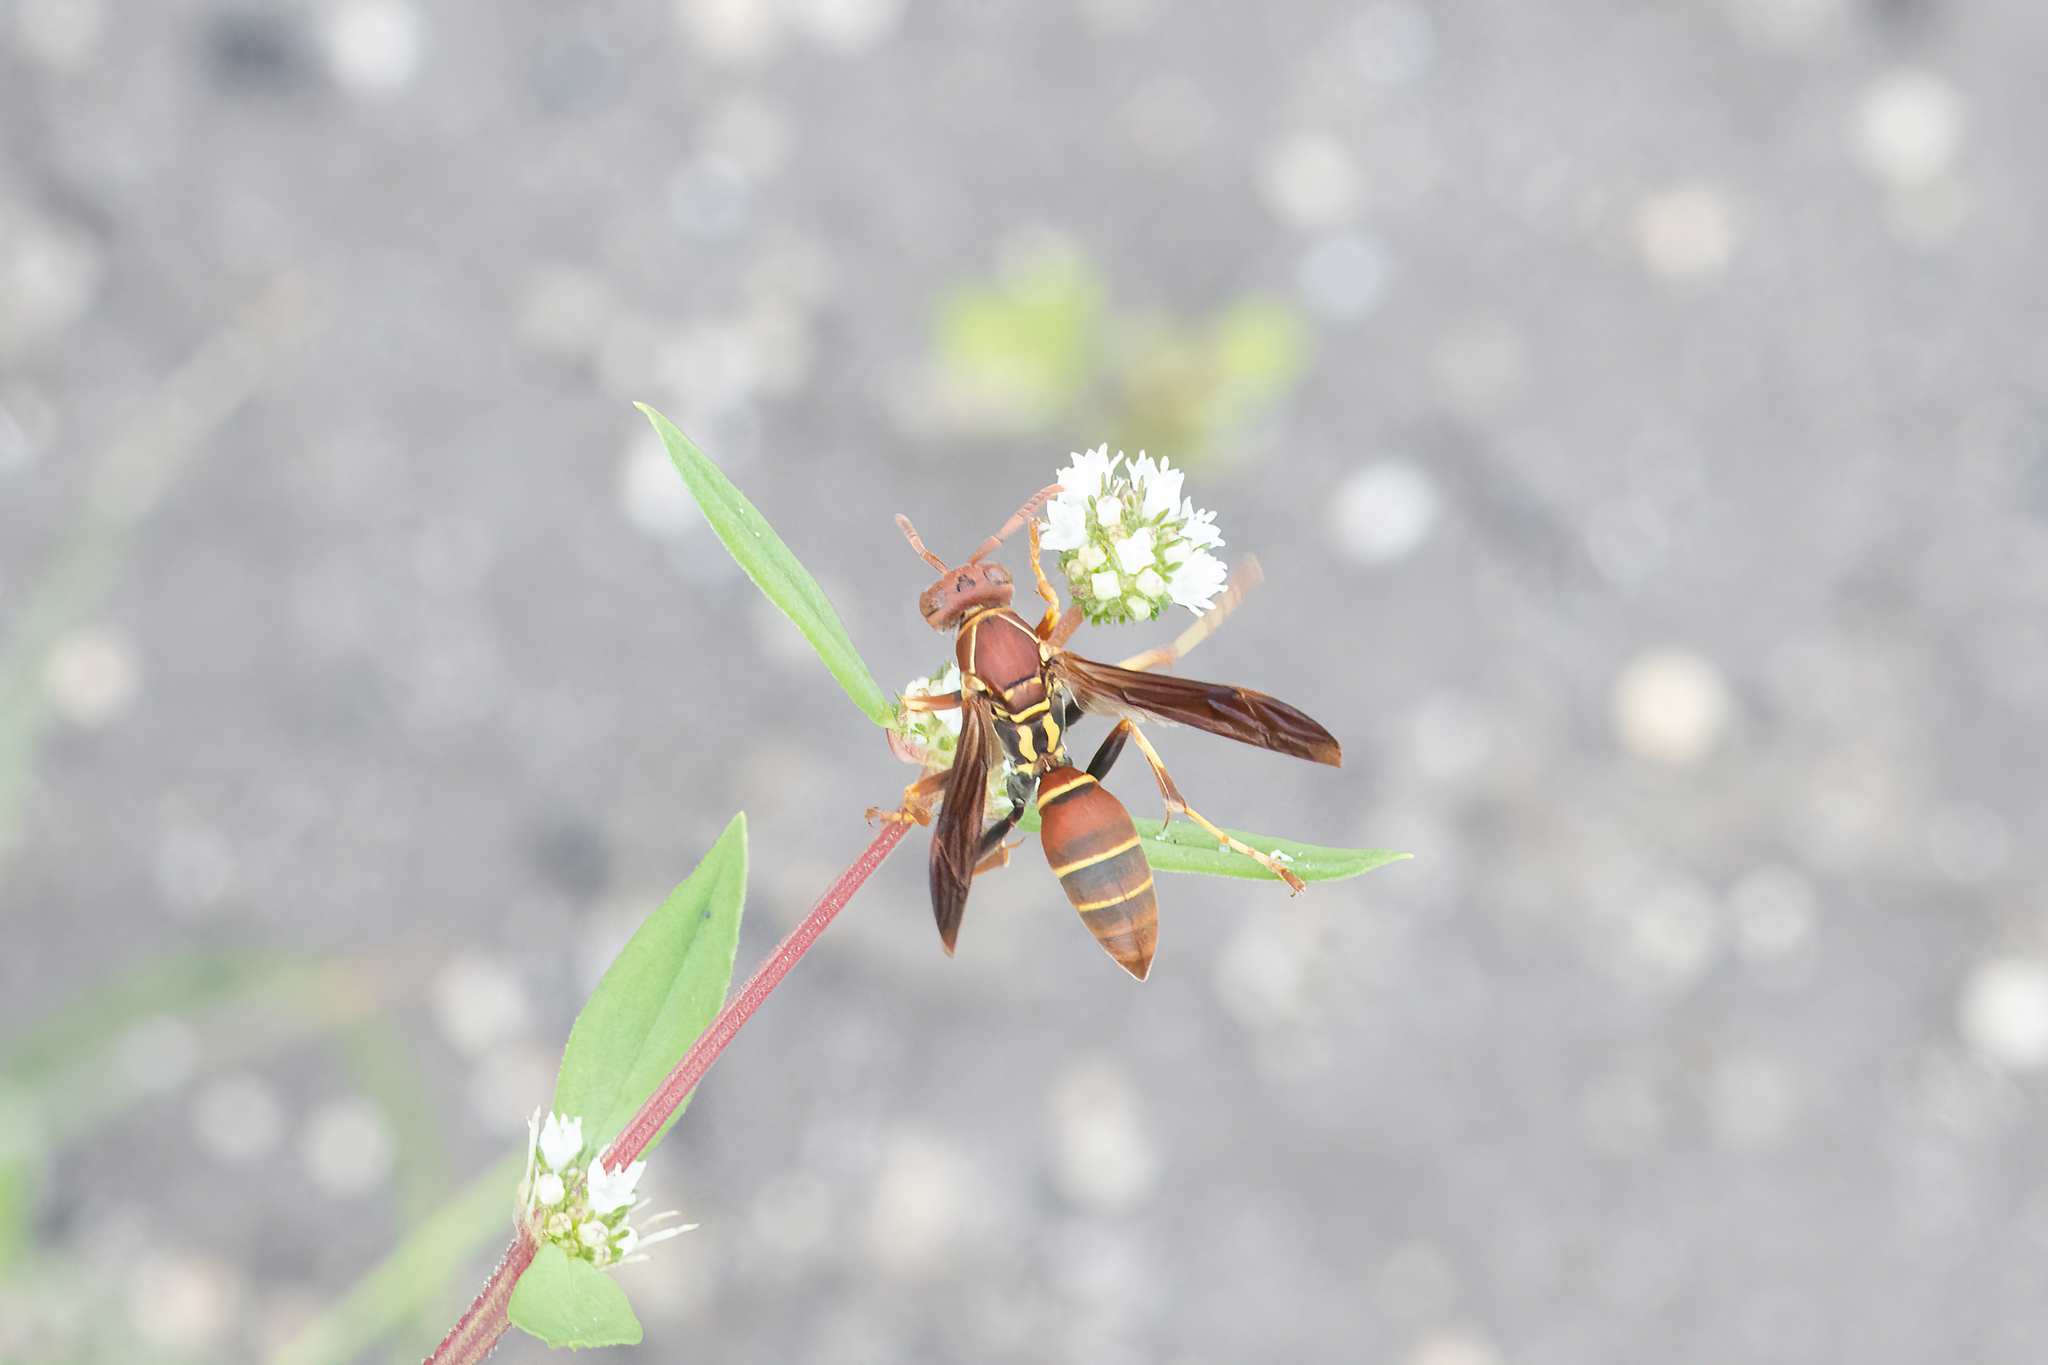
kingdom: Animalia
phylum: Arthropoda
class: Insecta
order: Hymenoptera
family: Eumenidae
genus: Polistes
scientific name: Polistes dorsalis
